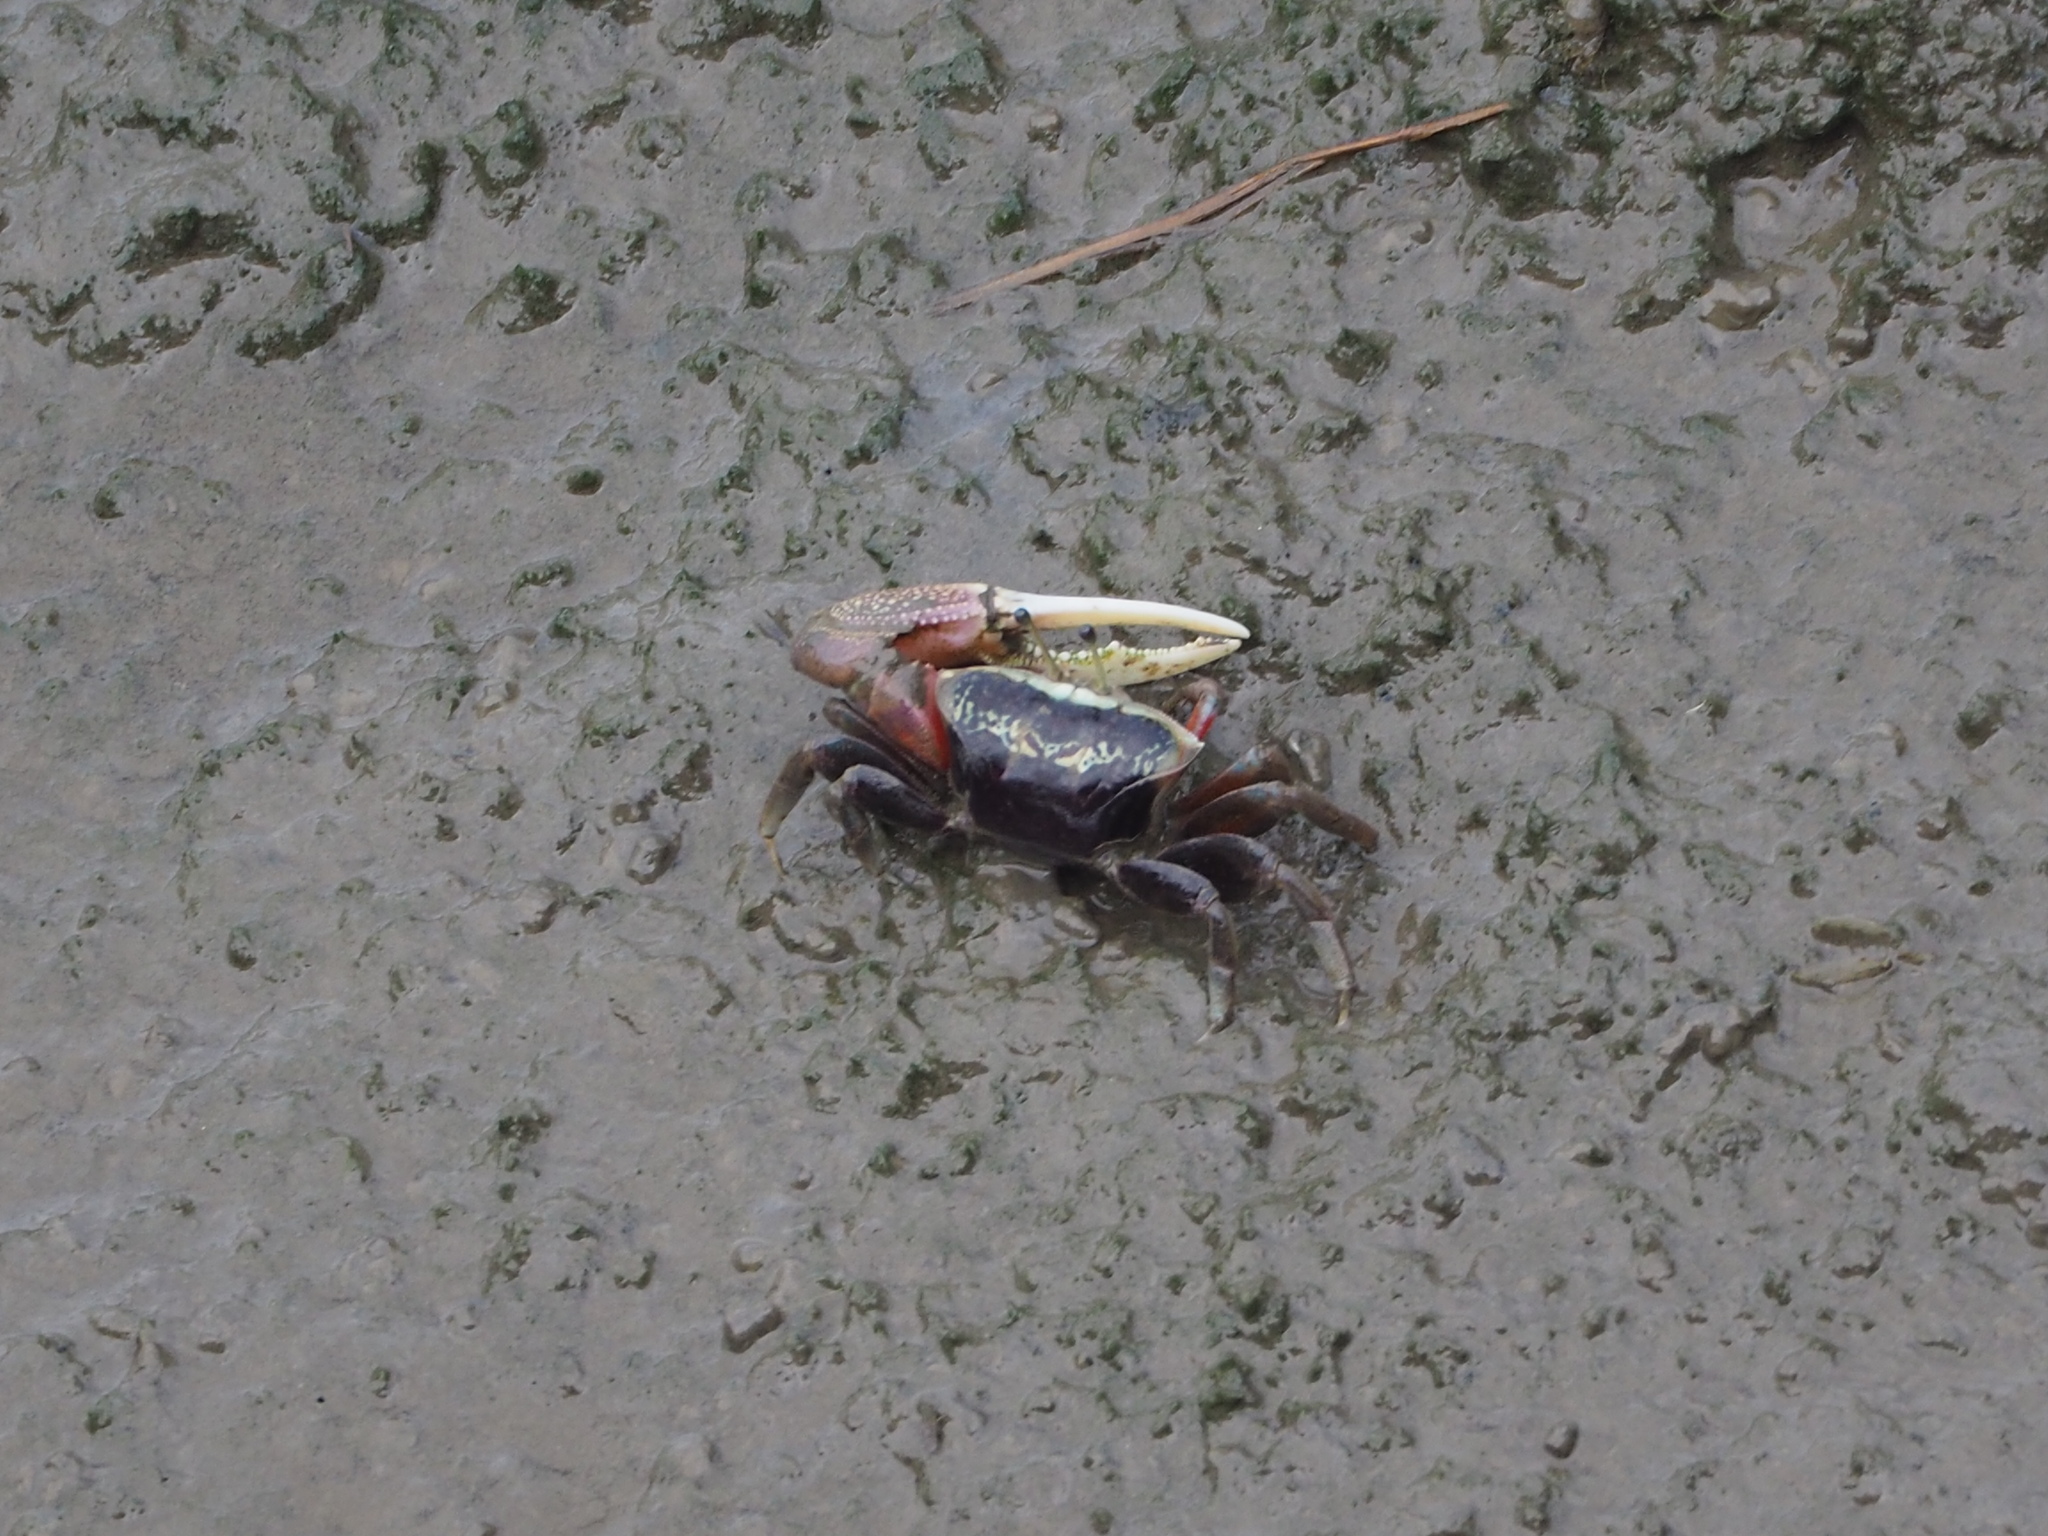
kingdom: Animalia
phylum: Arthropoda
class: Malacostraca
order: Decapoda
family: Ocypodidae
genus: Tubuca
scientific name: Tubuca arcuata
